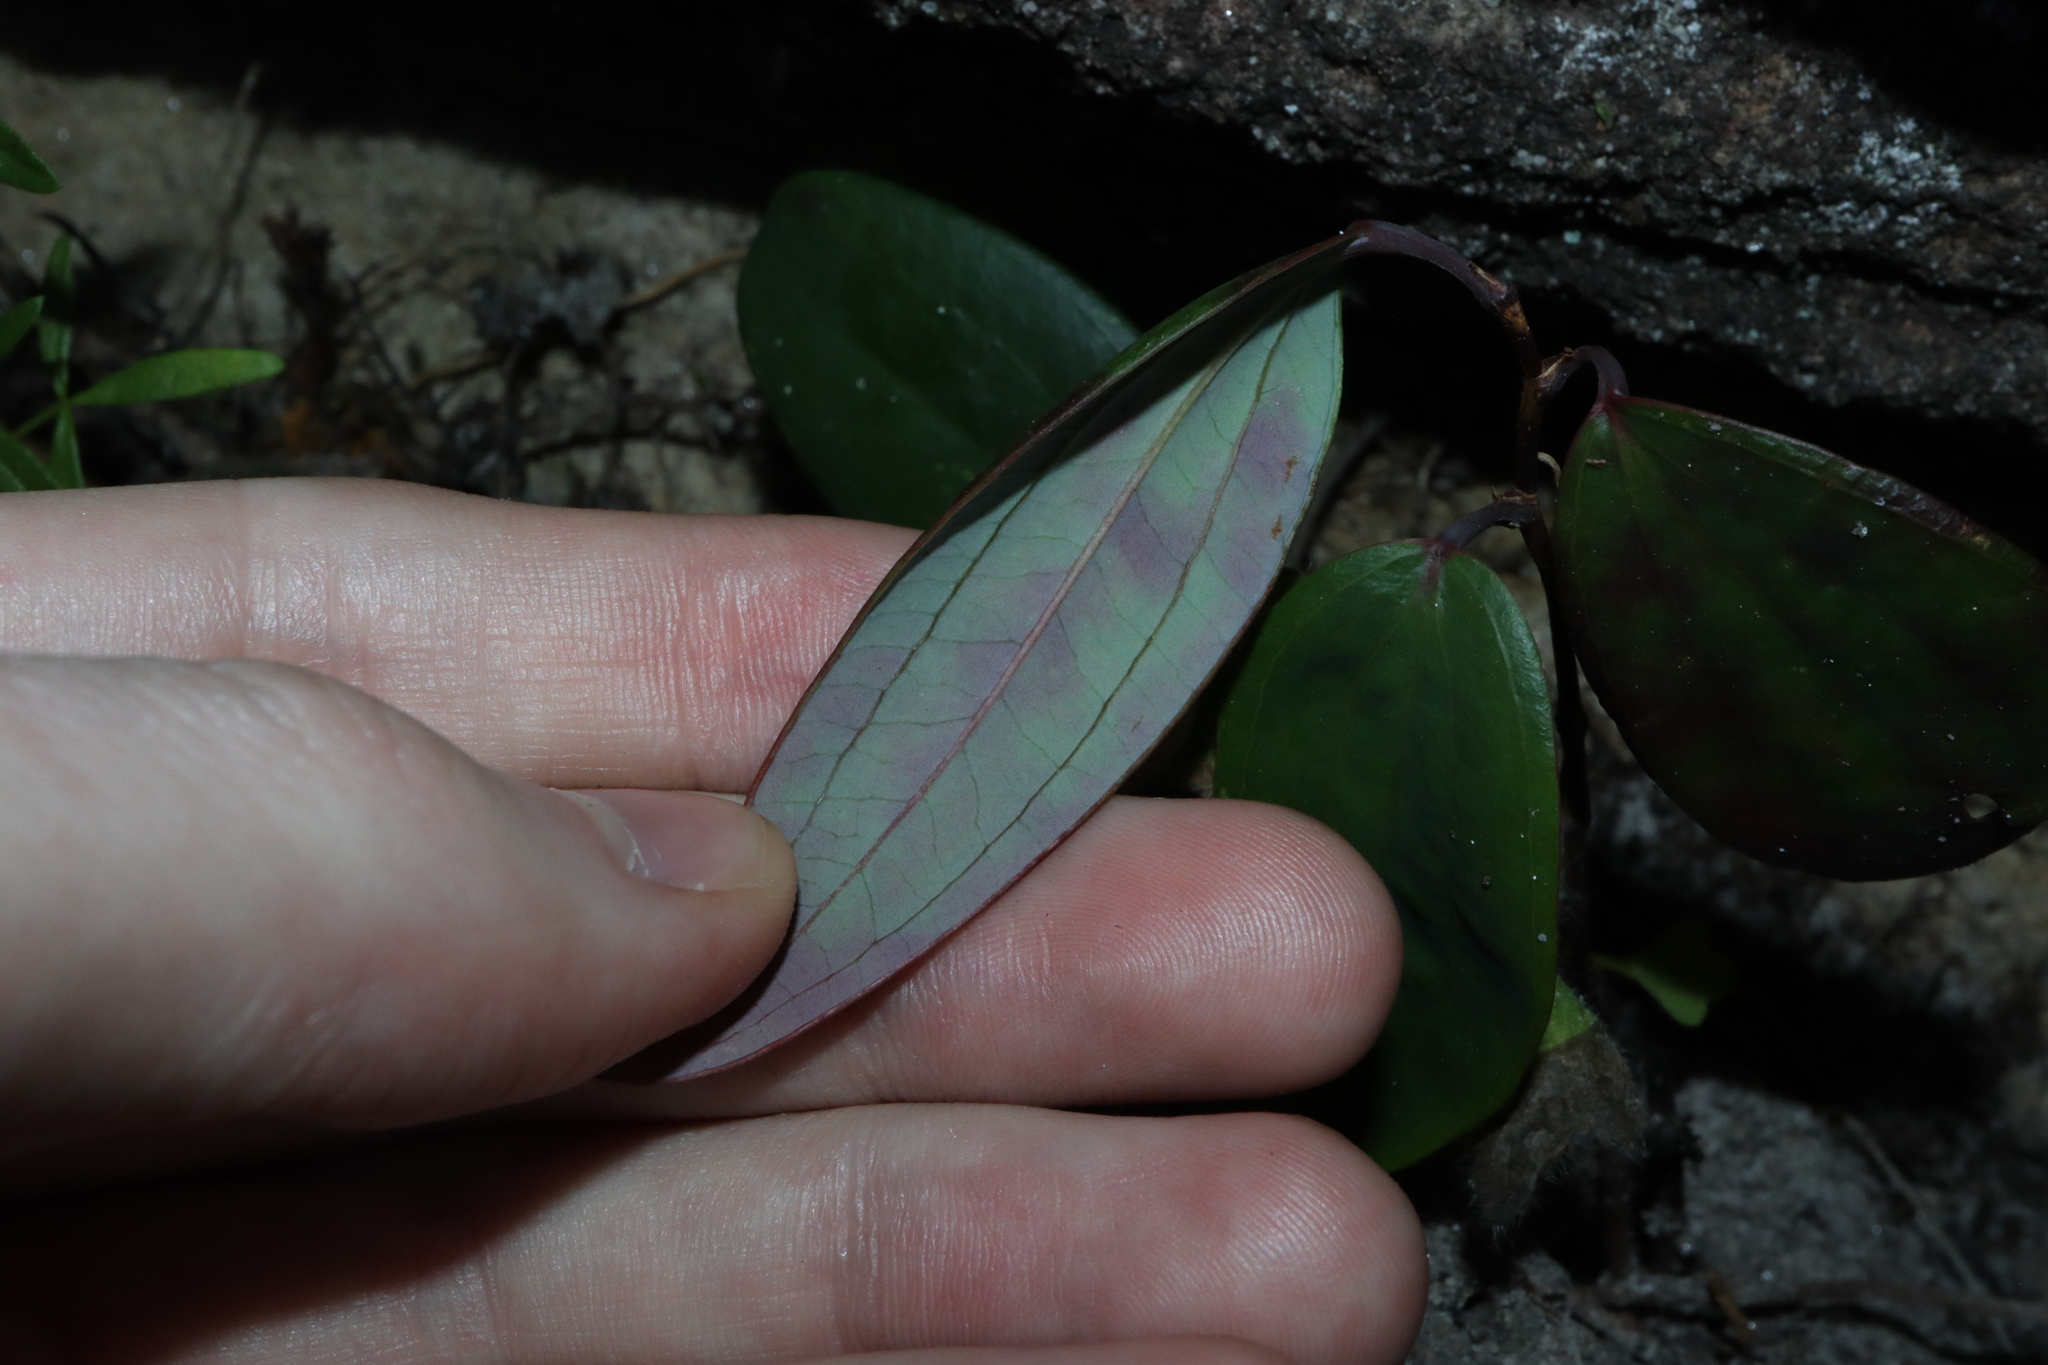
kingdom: Plantae
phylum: Tracheophyta
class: Liliopsida
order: Liliales
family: Smilacaceae
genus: Smilax
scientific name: Smilax glyciphylla
